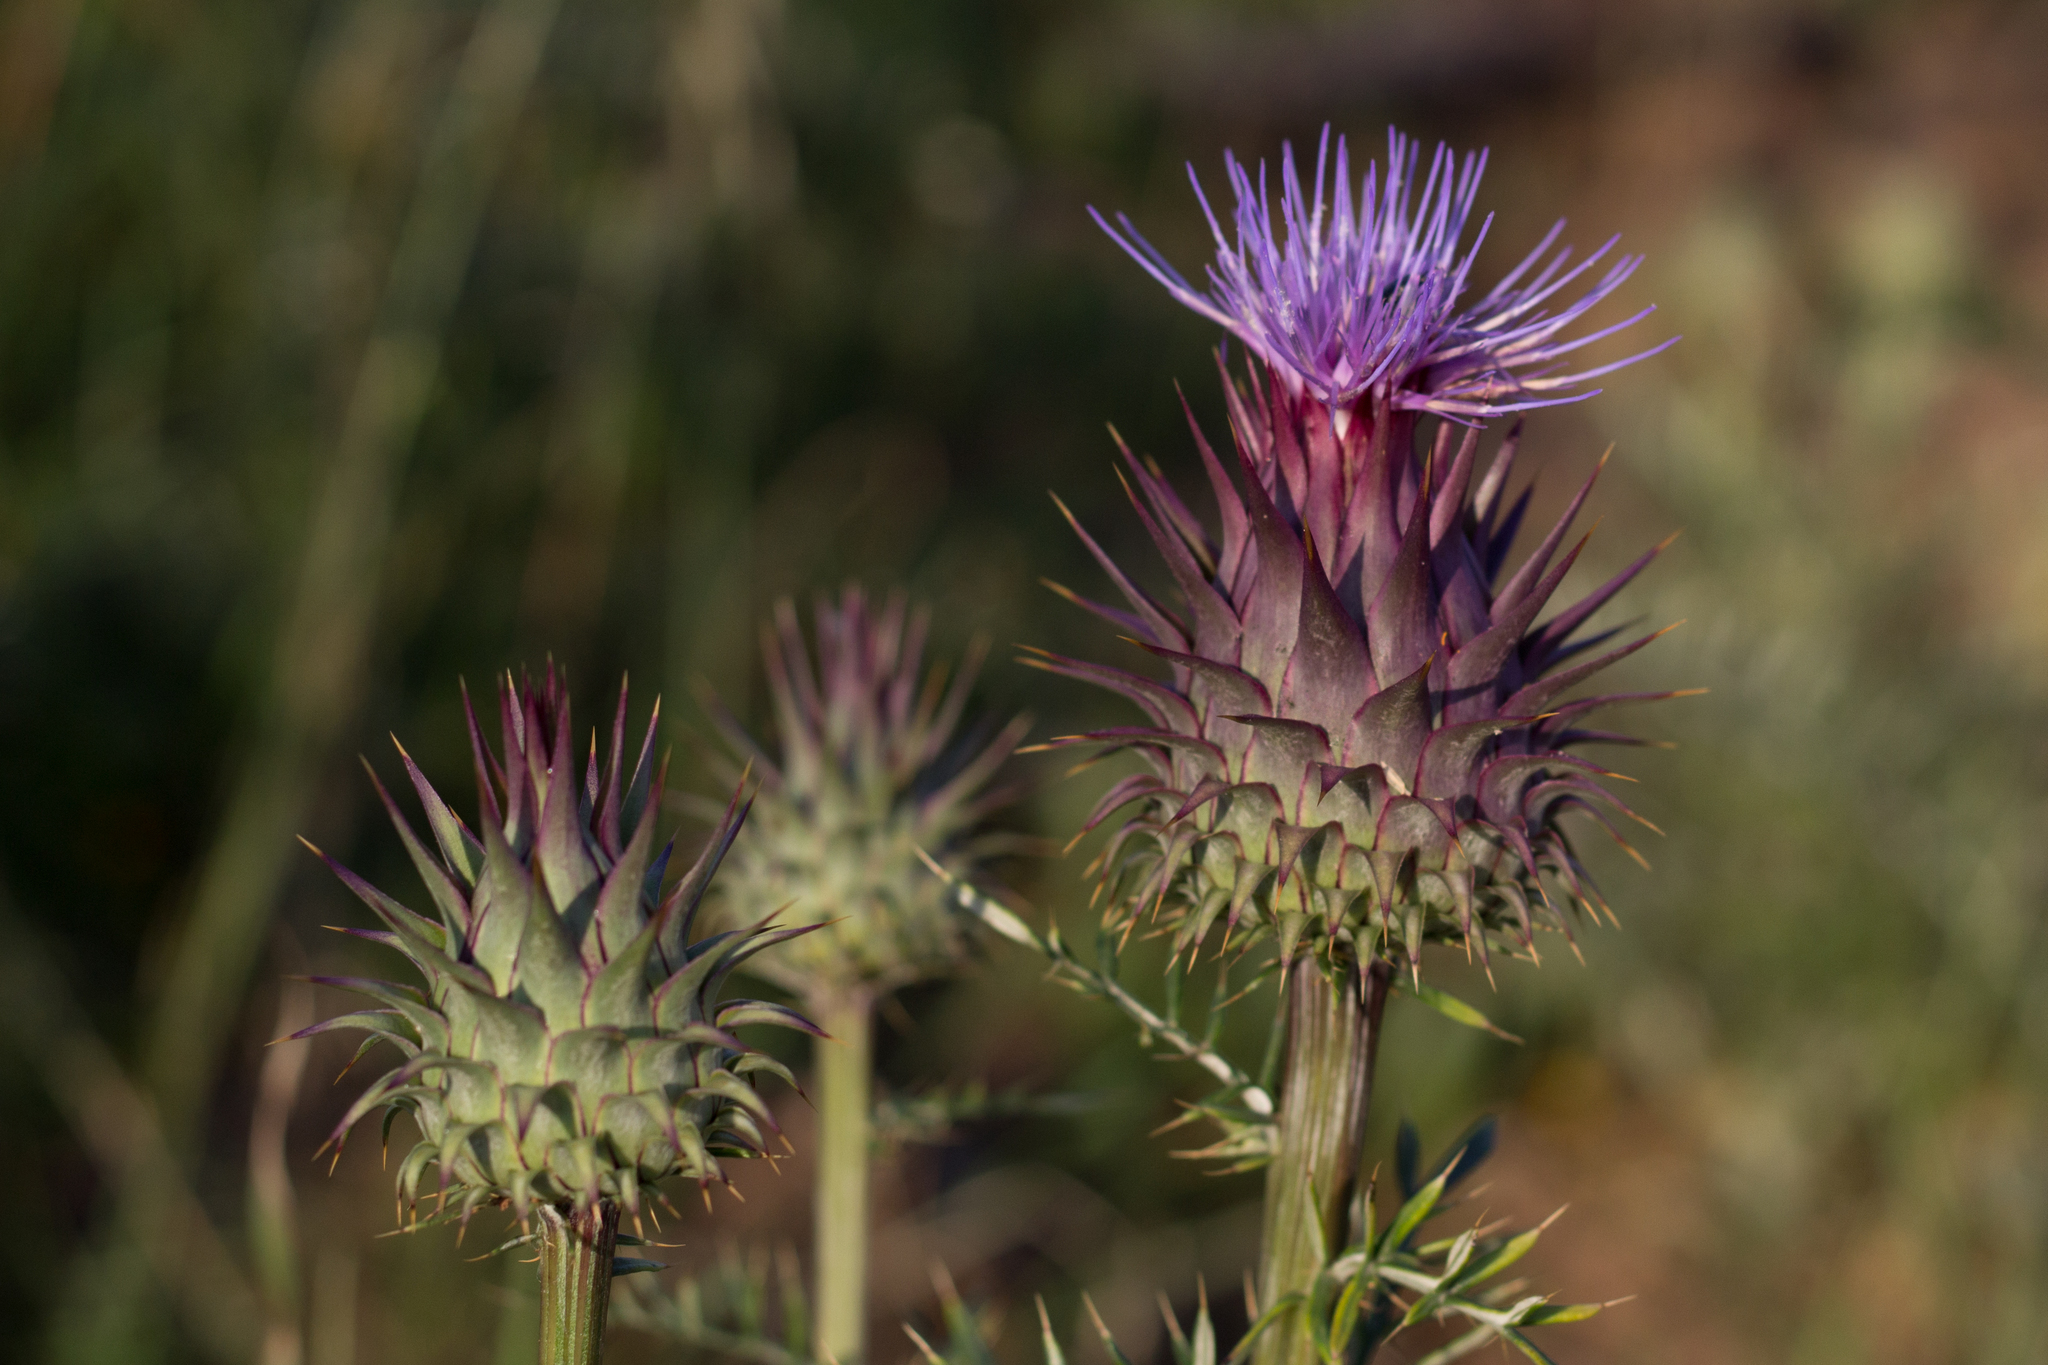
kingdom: Plantae
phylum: Tracheophyta
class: Magnoliopsida
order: Asterales
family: Asteraceae
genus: Cynara
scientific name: Cynara humilis
